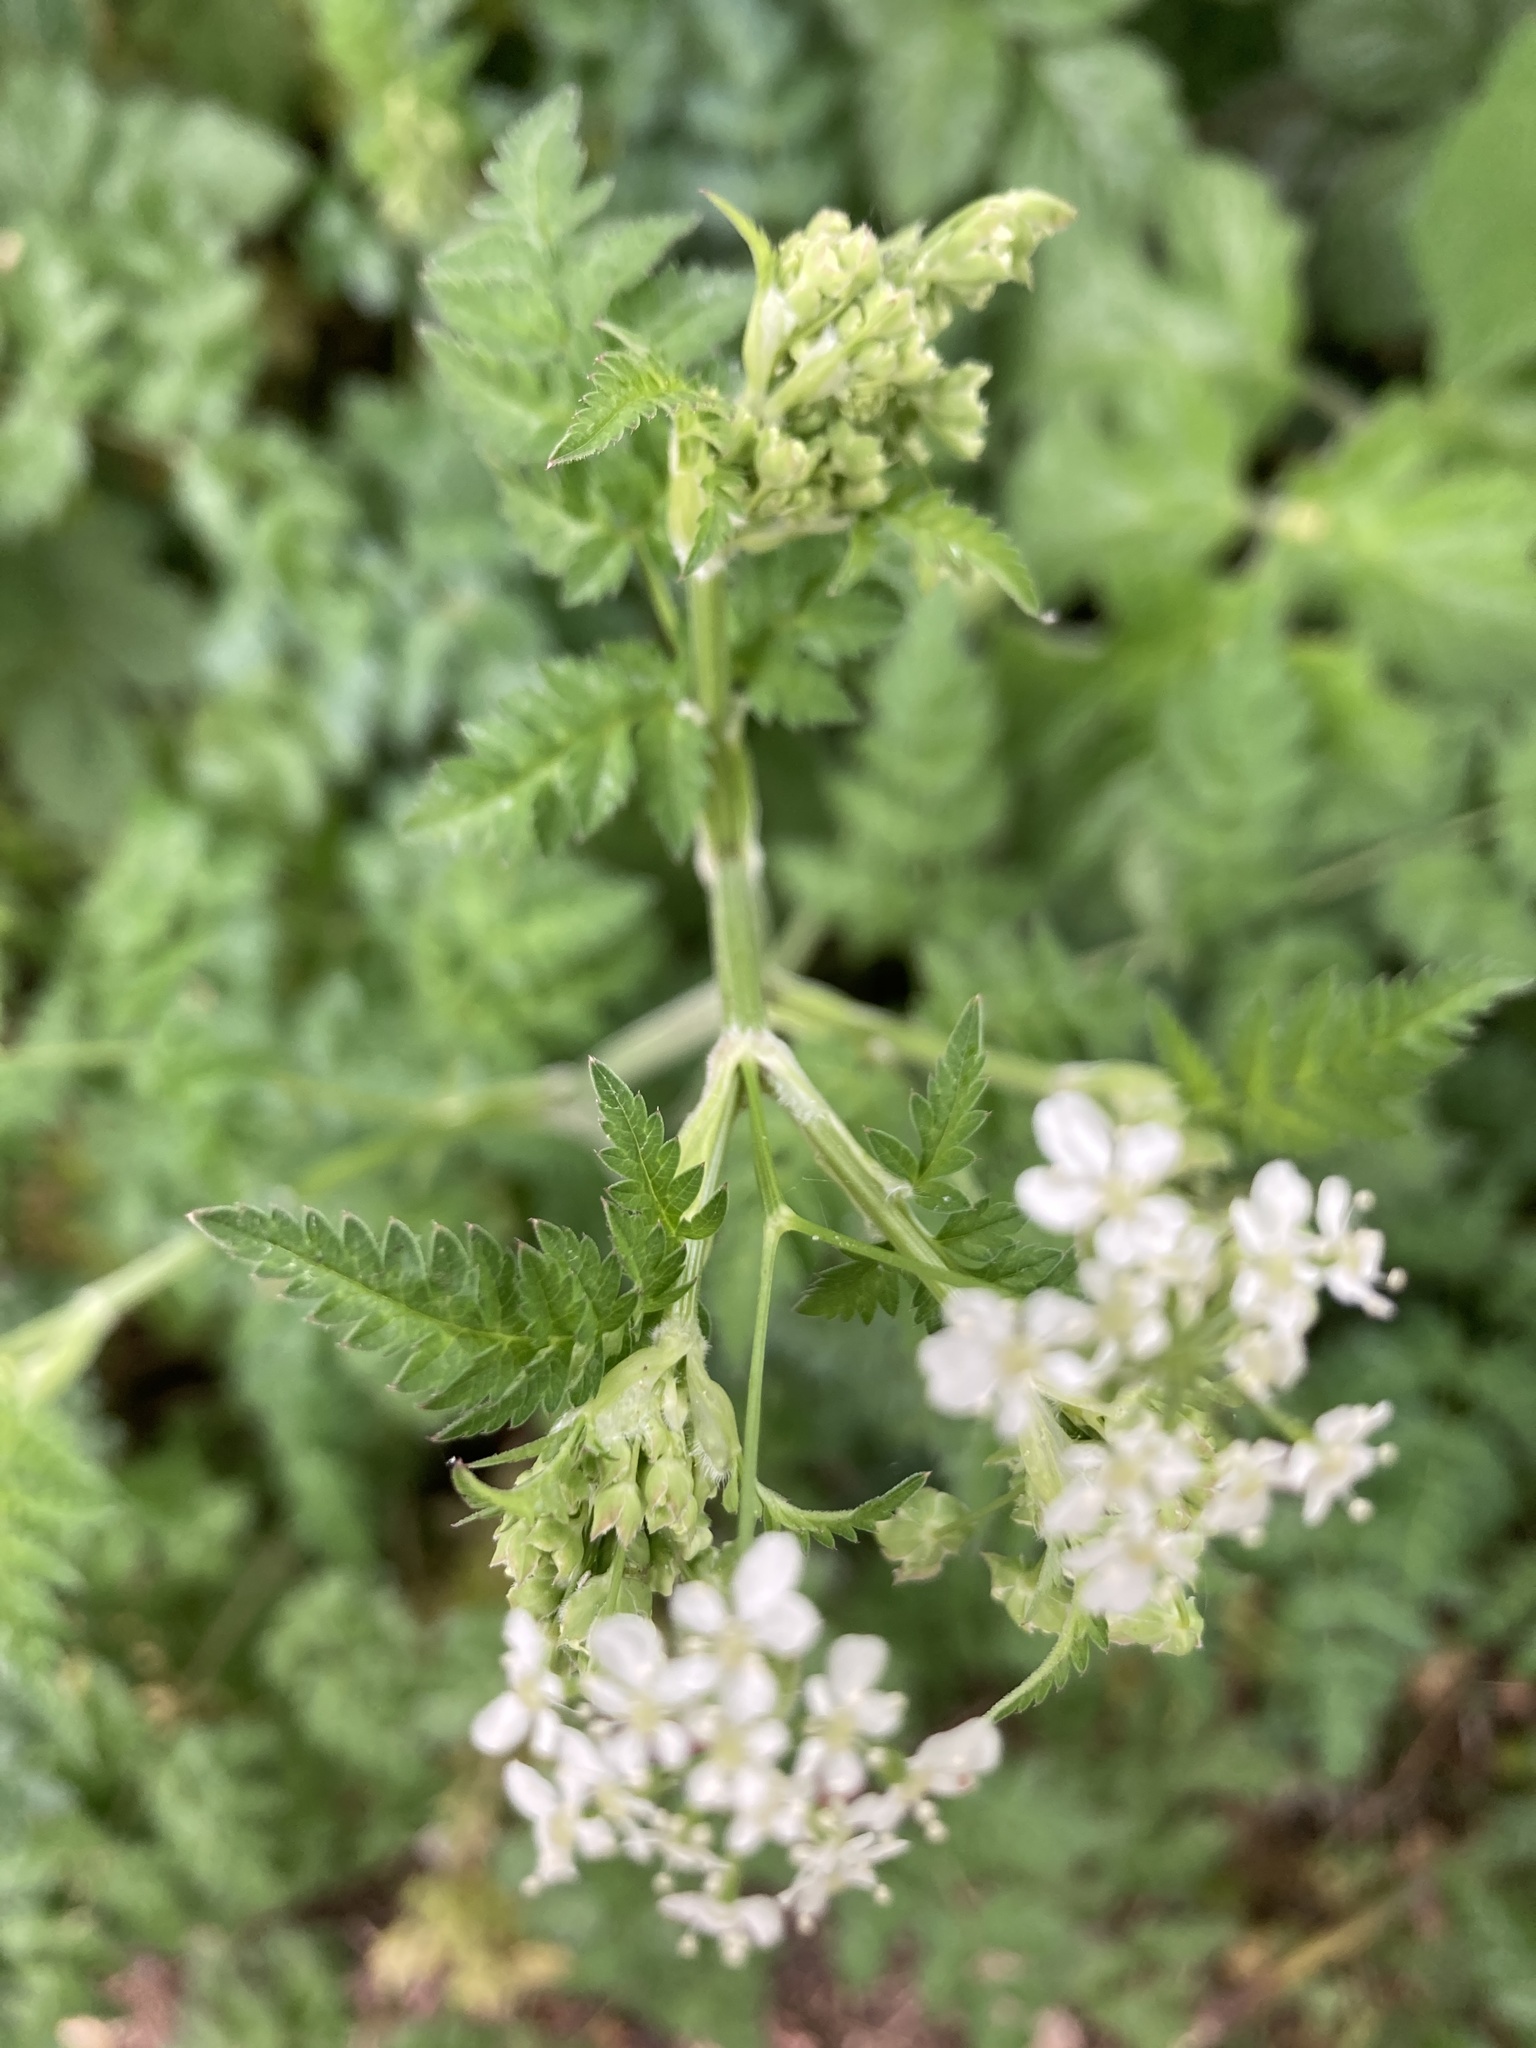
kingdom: Plantae
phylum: Tracheophyta
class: Magnoliopsida
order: Apiales
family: Apiaceae
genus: Anthriscus
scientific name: Anthriscus sylvestris
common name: Cow parsley
